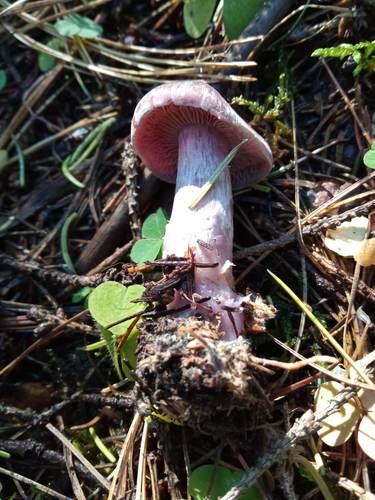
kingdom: Fungi
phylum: Basidiomycota
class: Agaricomycetes
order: Agaricales
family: Cortinariaceae
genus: Cortinarius
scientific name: Cortinarius camphoratus
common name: Goatcheese webcap
